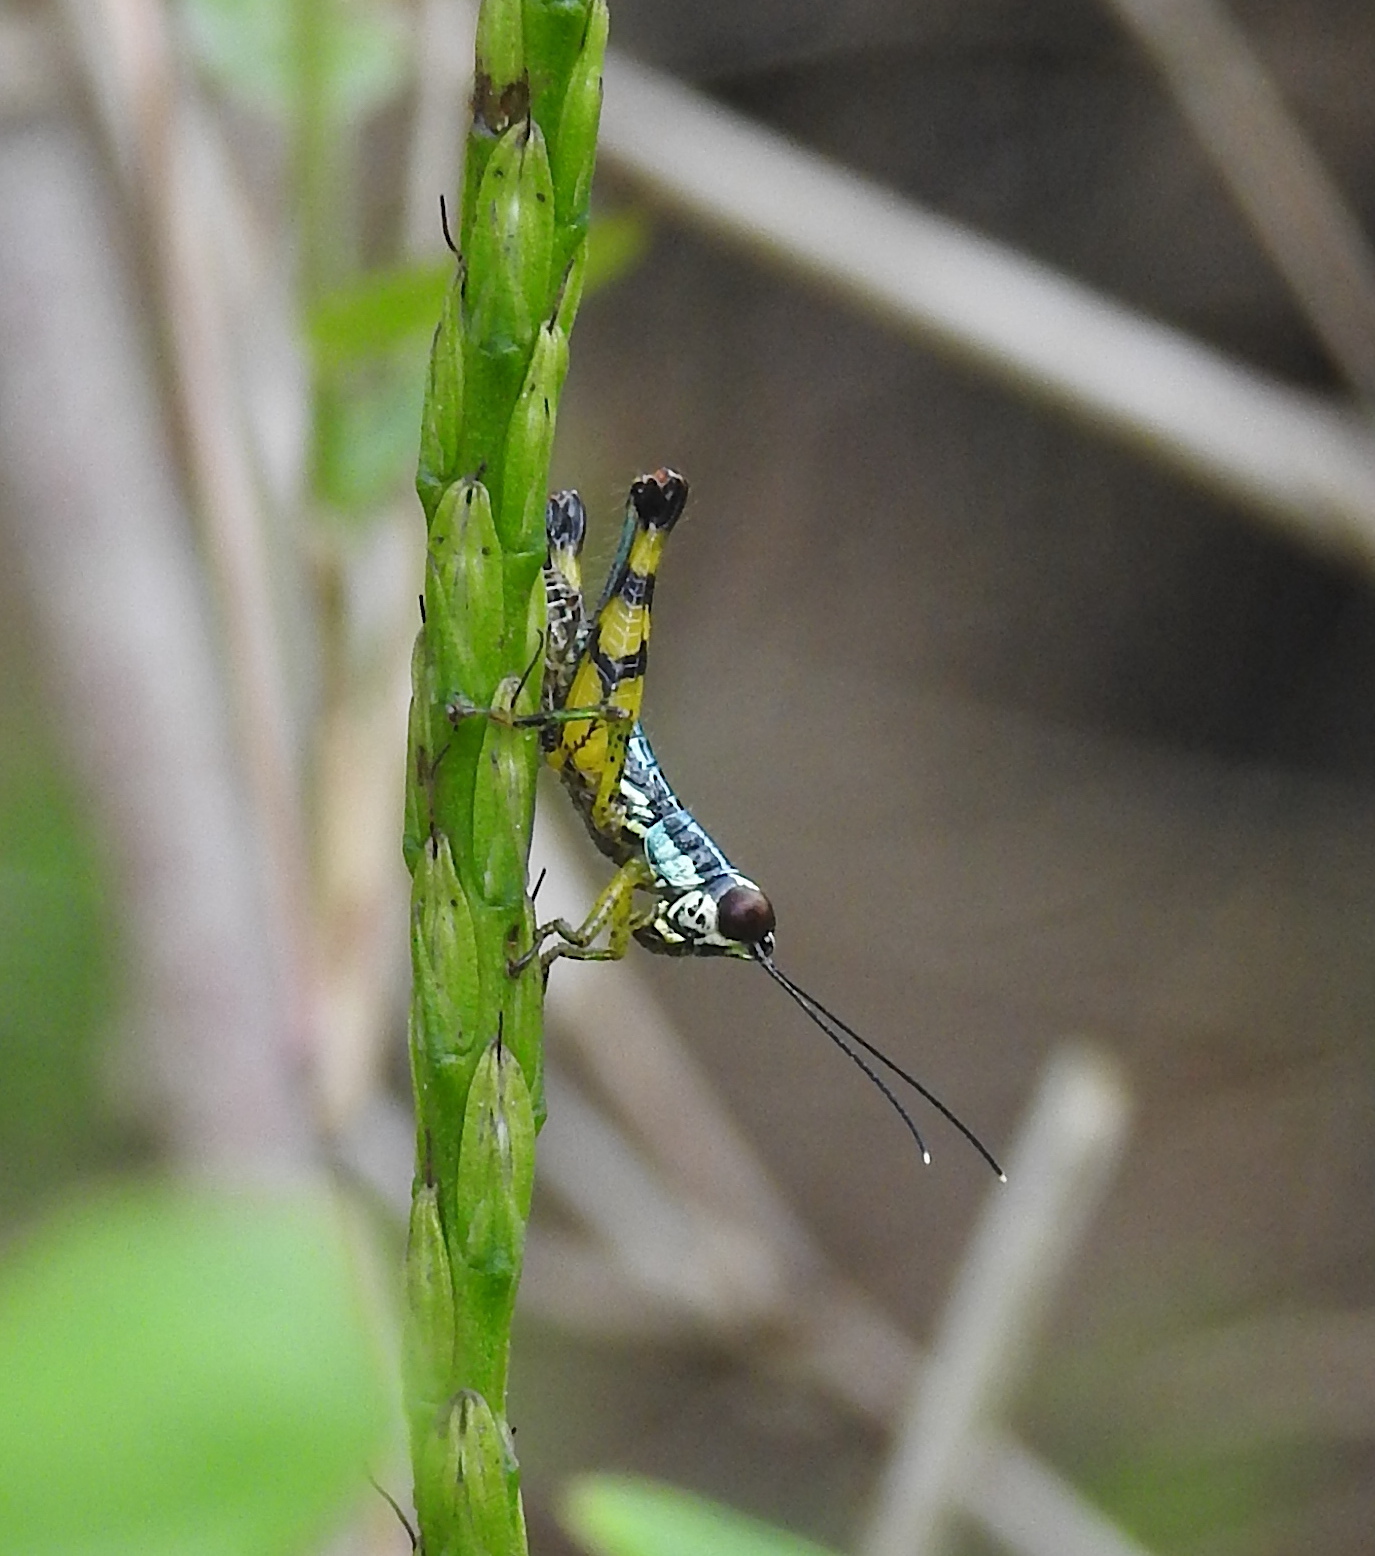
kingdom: Animalia
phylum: Arthropoda
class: Insecta
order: Orthoptera
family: Acrididae
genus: Genimen
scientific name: Genimen prasinum
